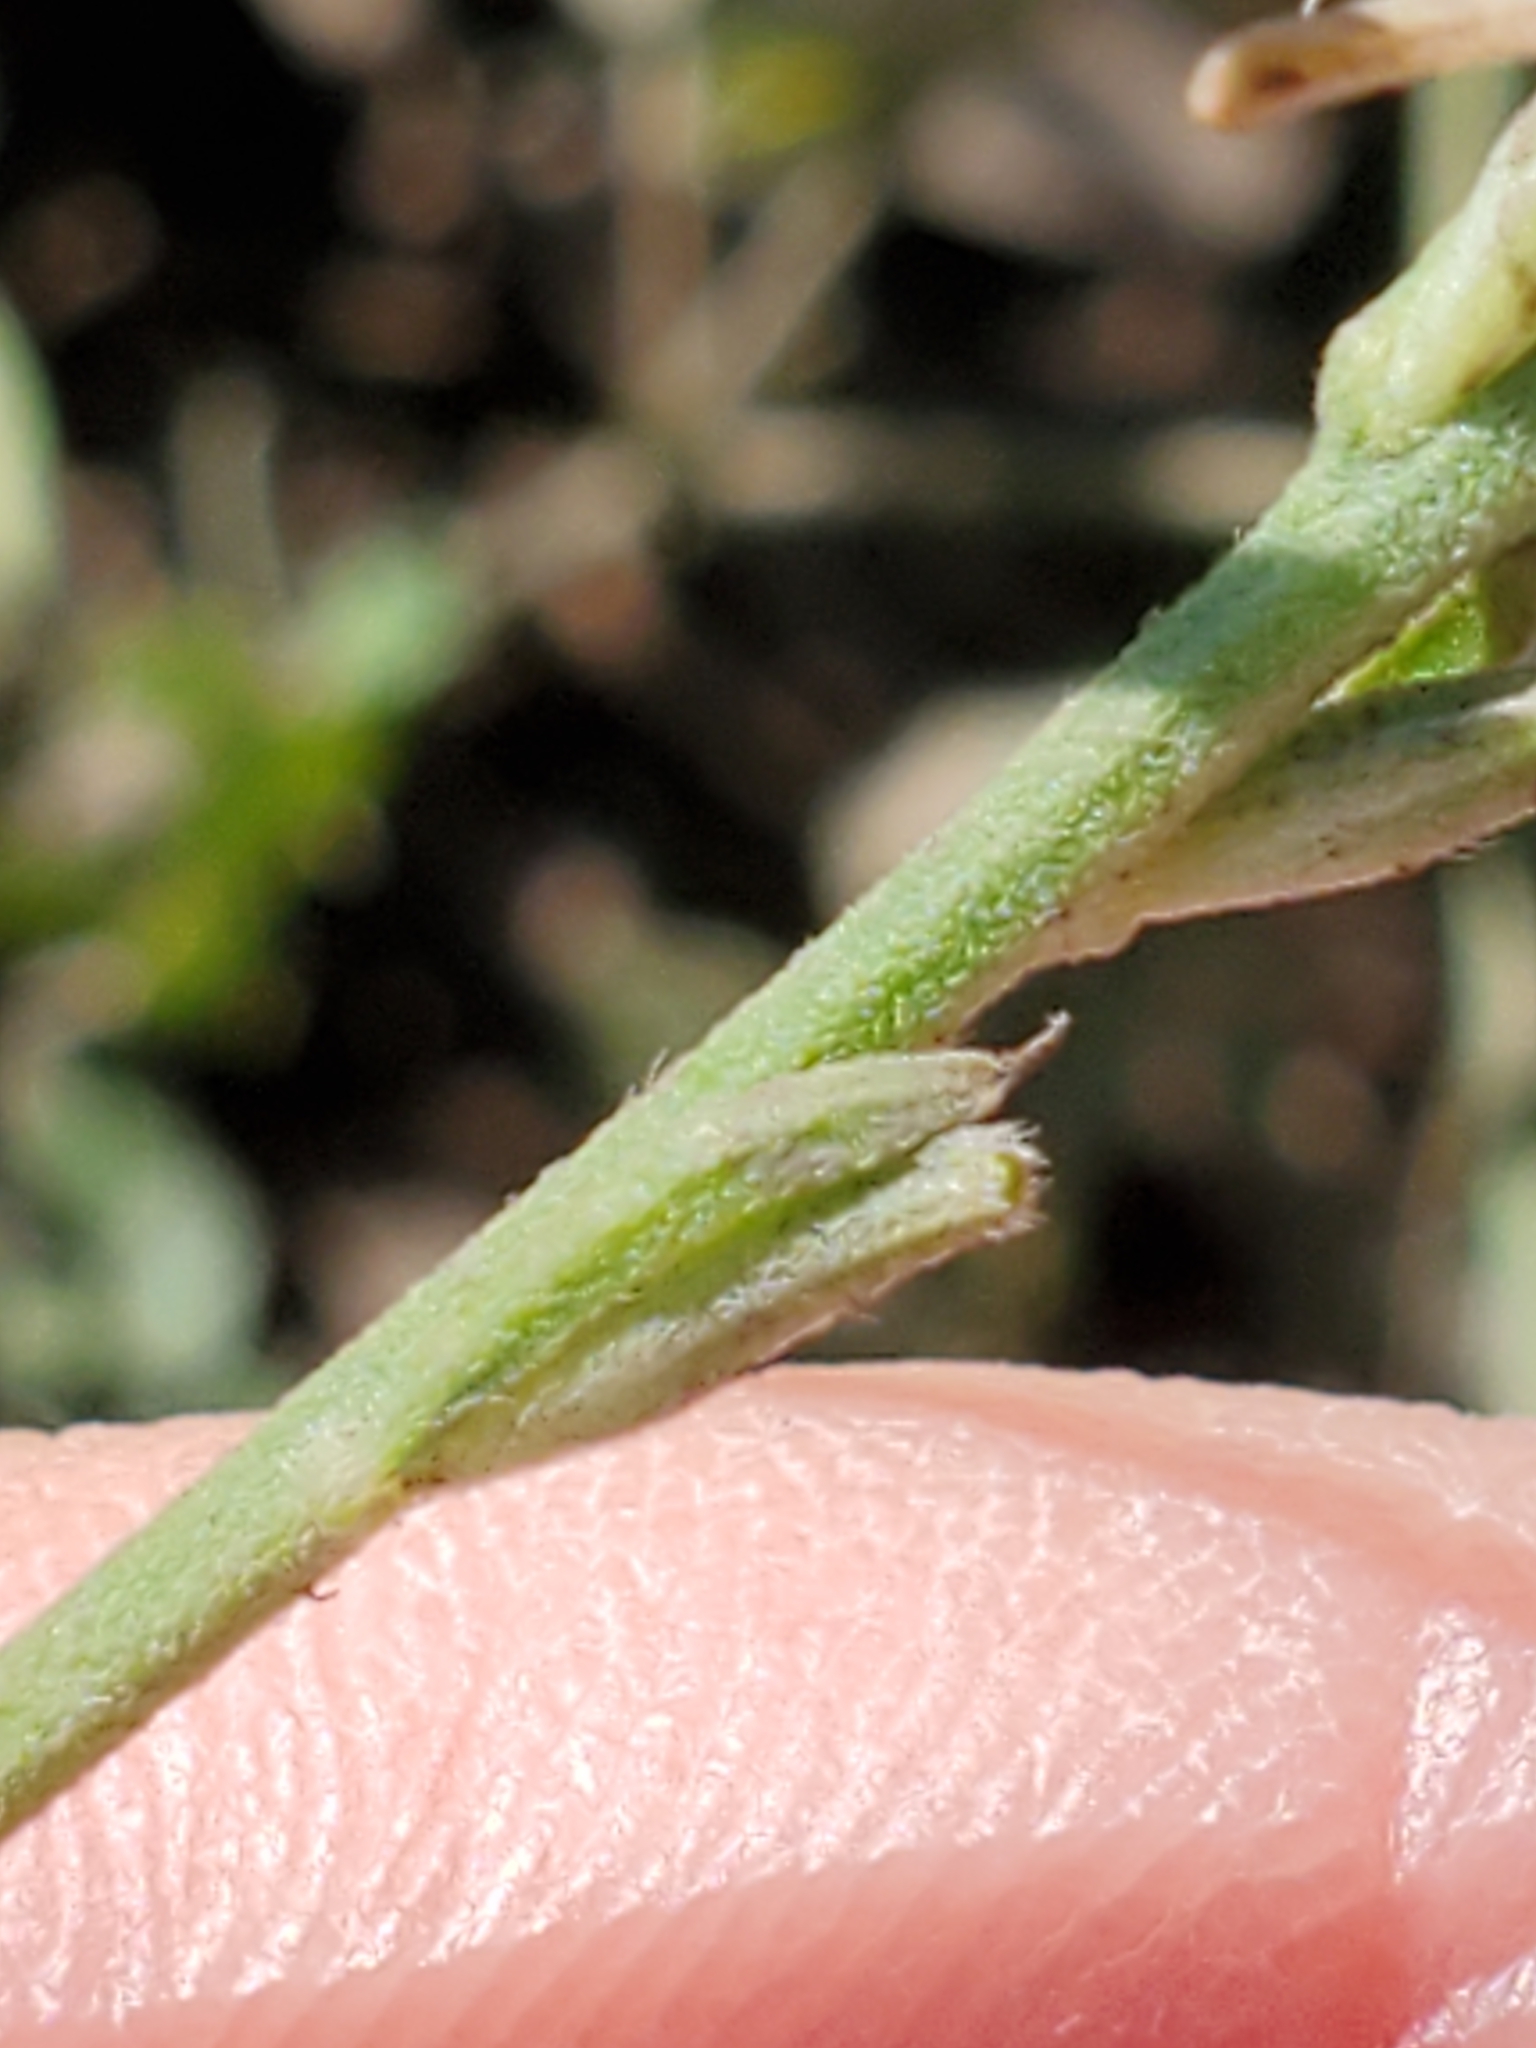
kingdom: Plantae
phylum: Tracheophyta
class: Magnoliopsida
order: Myrtales
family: Onagraceae
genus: Oenothera
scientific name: Oenothera suffrutescens
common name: Scarlet beeblossom
